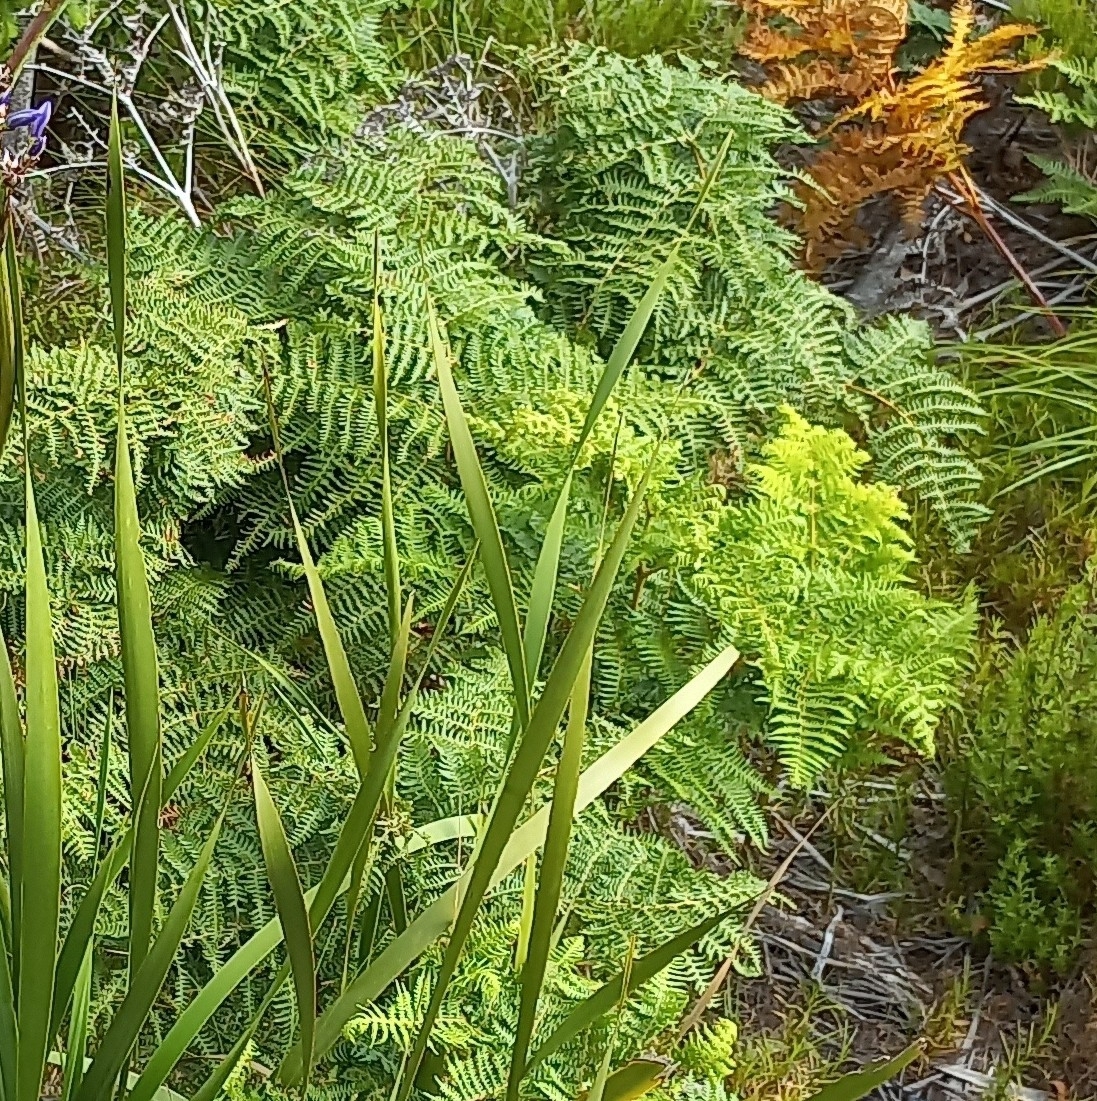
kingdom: Plantae
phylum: Tracheophyta
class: Polypodiopsida
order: Polypodiales
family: Dennstaedtiaceae
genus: Pteridium
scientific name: Pteridium aquilinum
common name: Bracken
